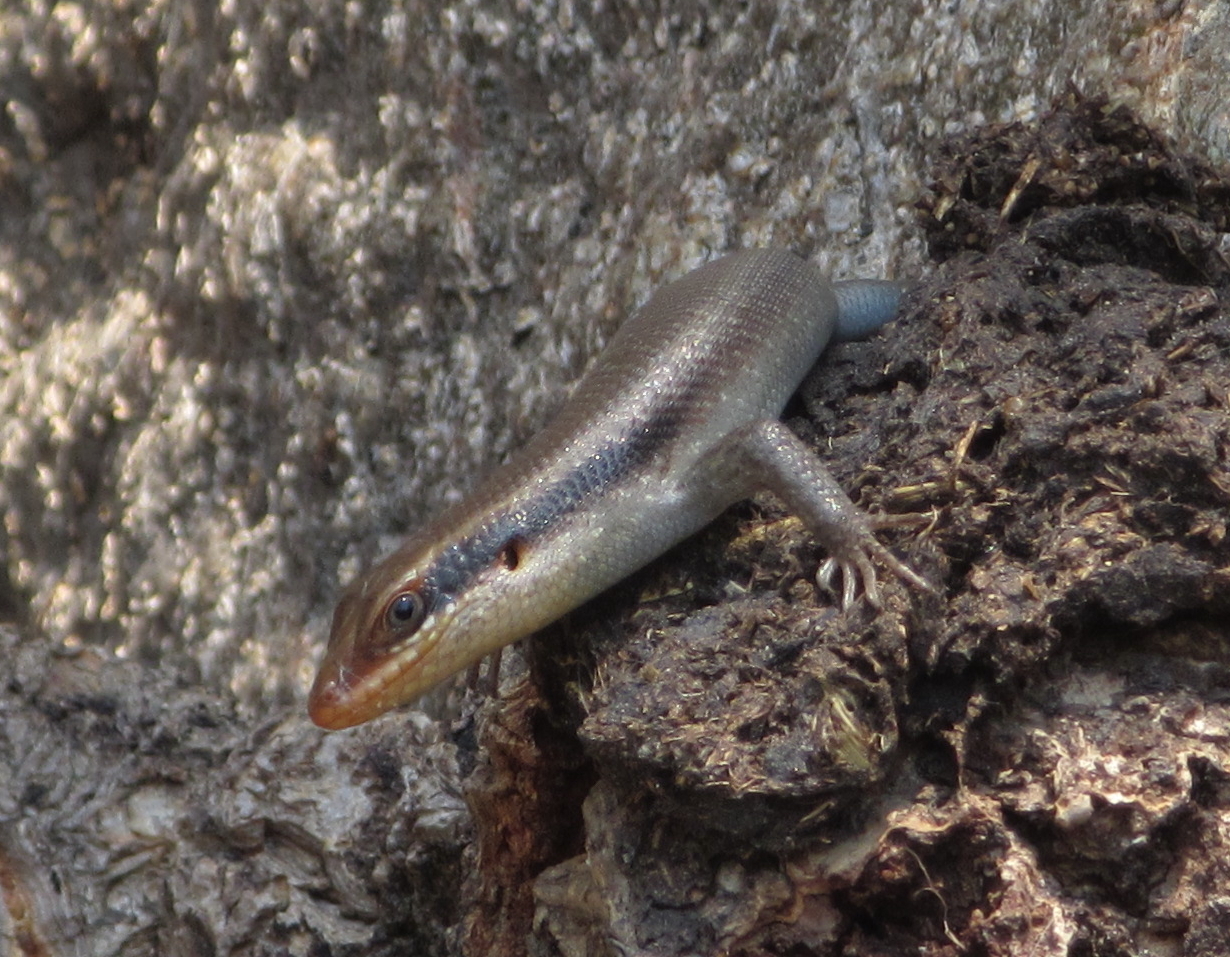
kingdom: Animalia
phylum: Chordata
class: Squamata
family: Scincidae
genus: Trachylepis
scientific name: Trachylepis wahlbergii
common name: Wahlberg’s striped skink
